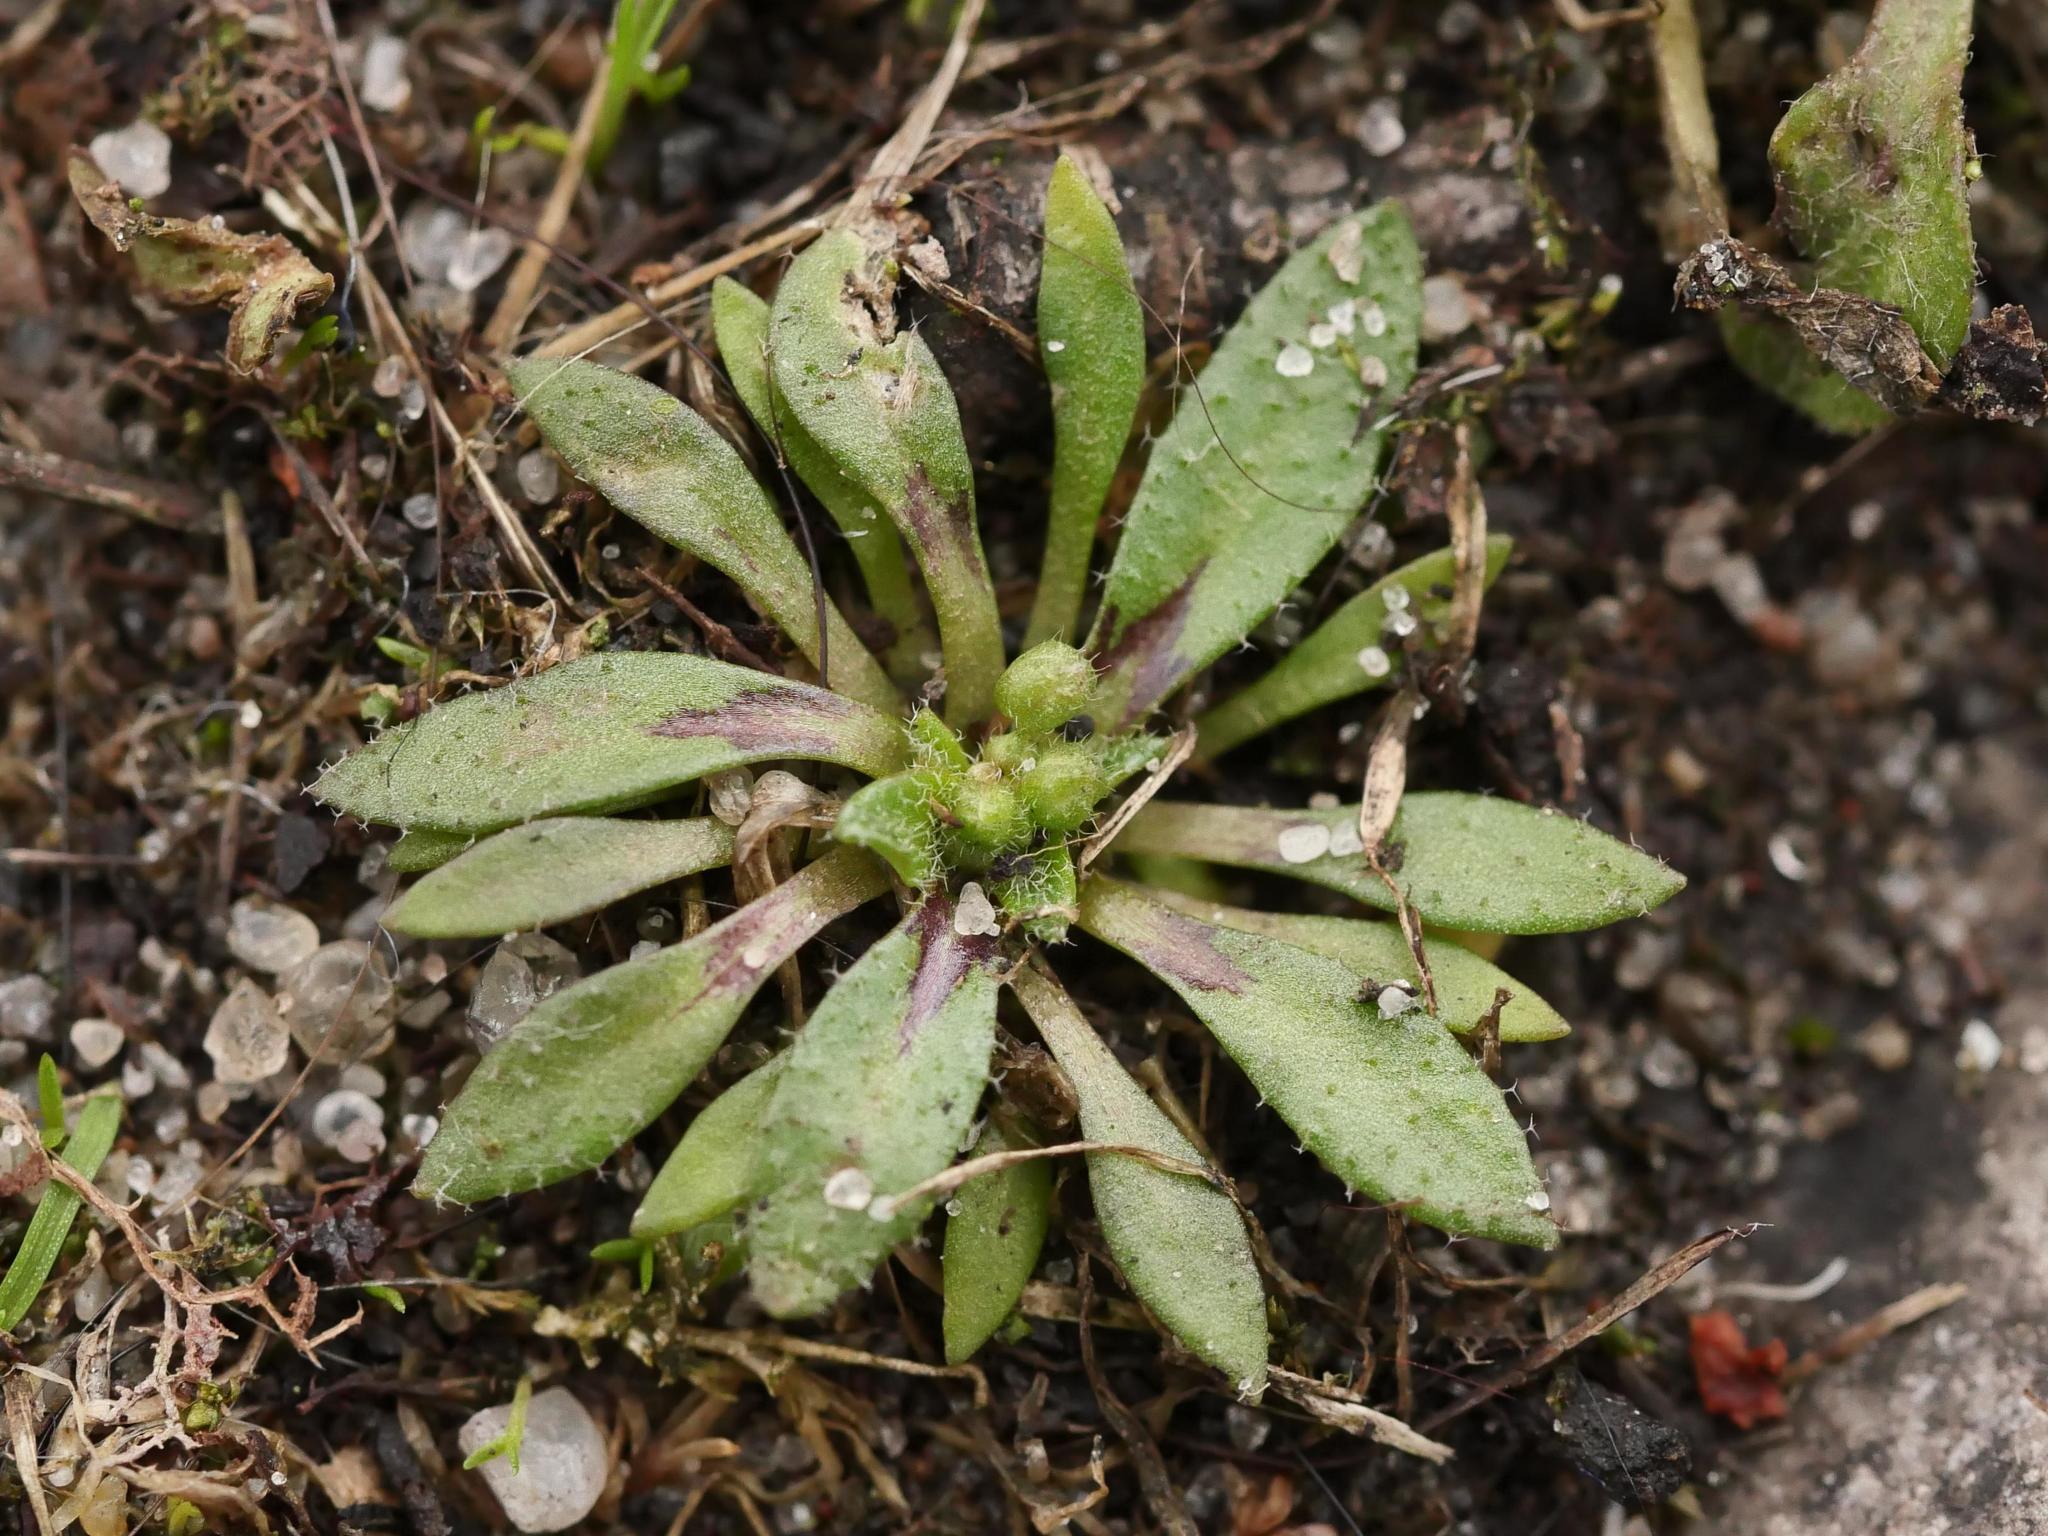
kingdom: Plantae
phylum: Tracheophyta
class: Magnoliopsida
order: Brassicales
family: Brassicaceae
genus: Draba
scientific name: Draba verna
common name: Spring draba
